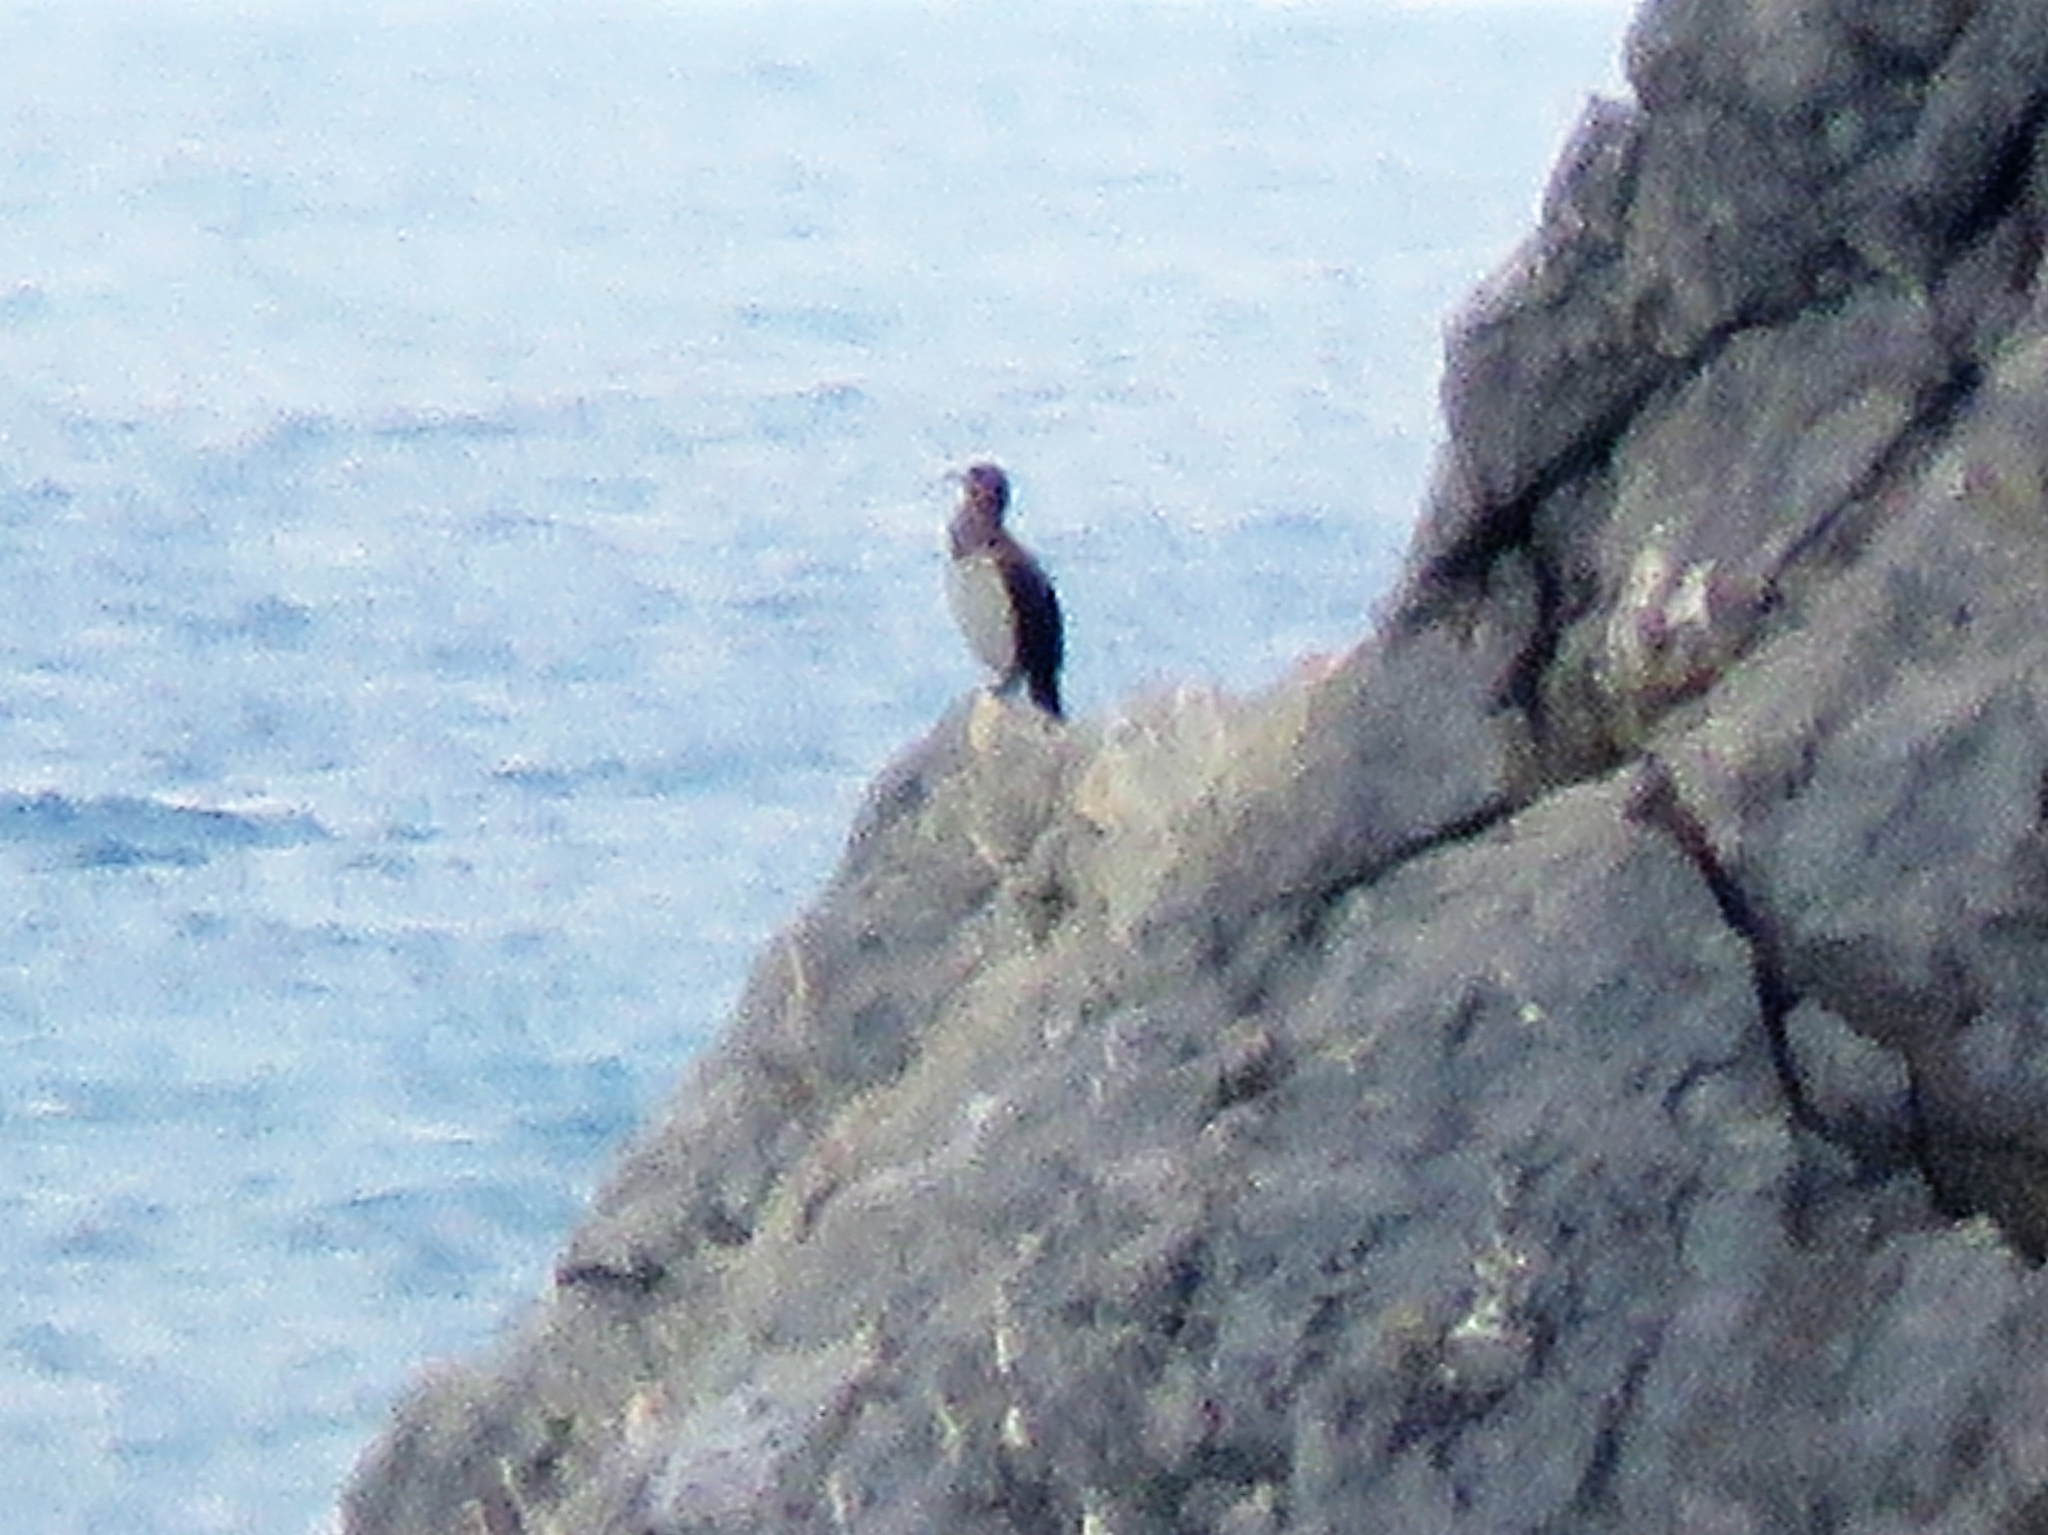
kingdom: Animalia
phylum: Chordata
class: Aves
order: Suliformes
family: Phalacrocoracidae
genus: Phalacrocorax
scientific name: Phalacrocorax carbo
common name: Great cormorant
